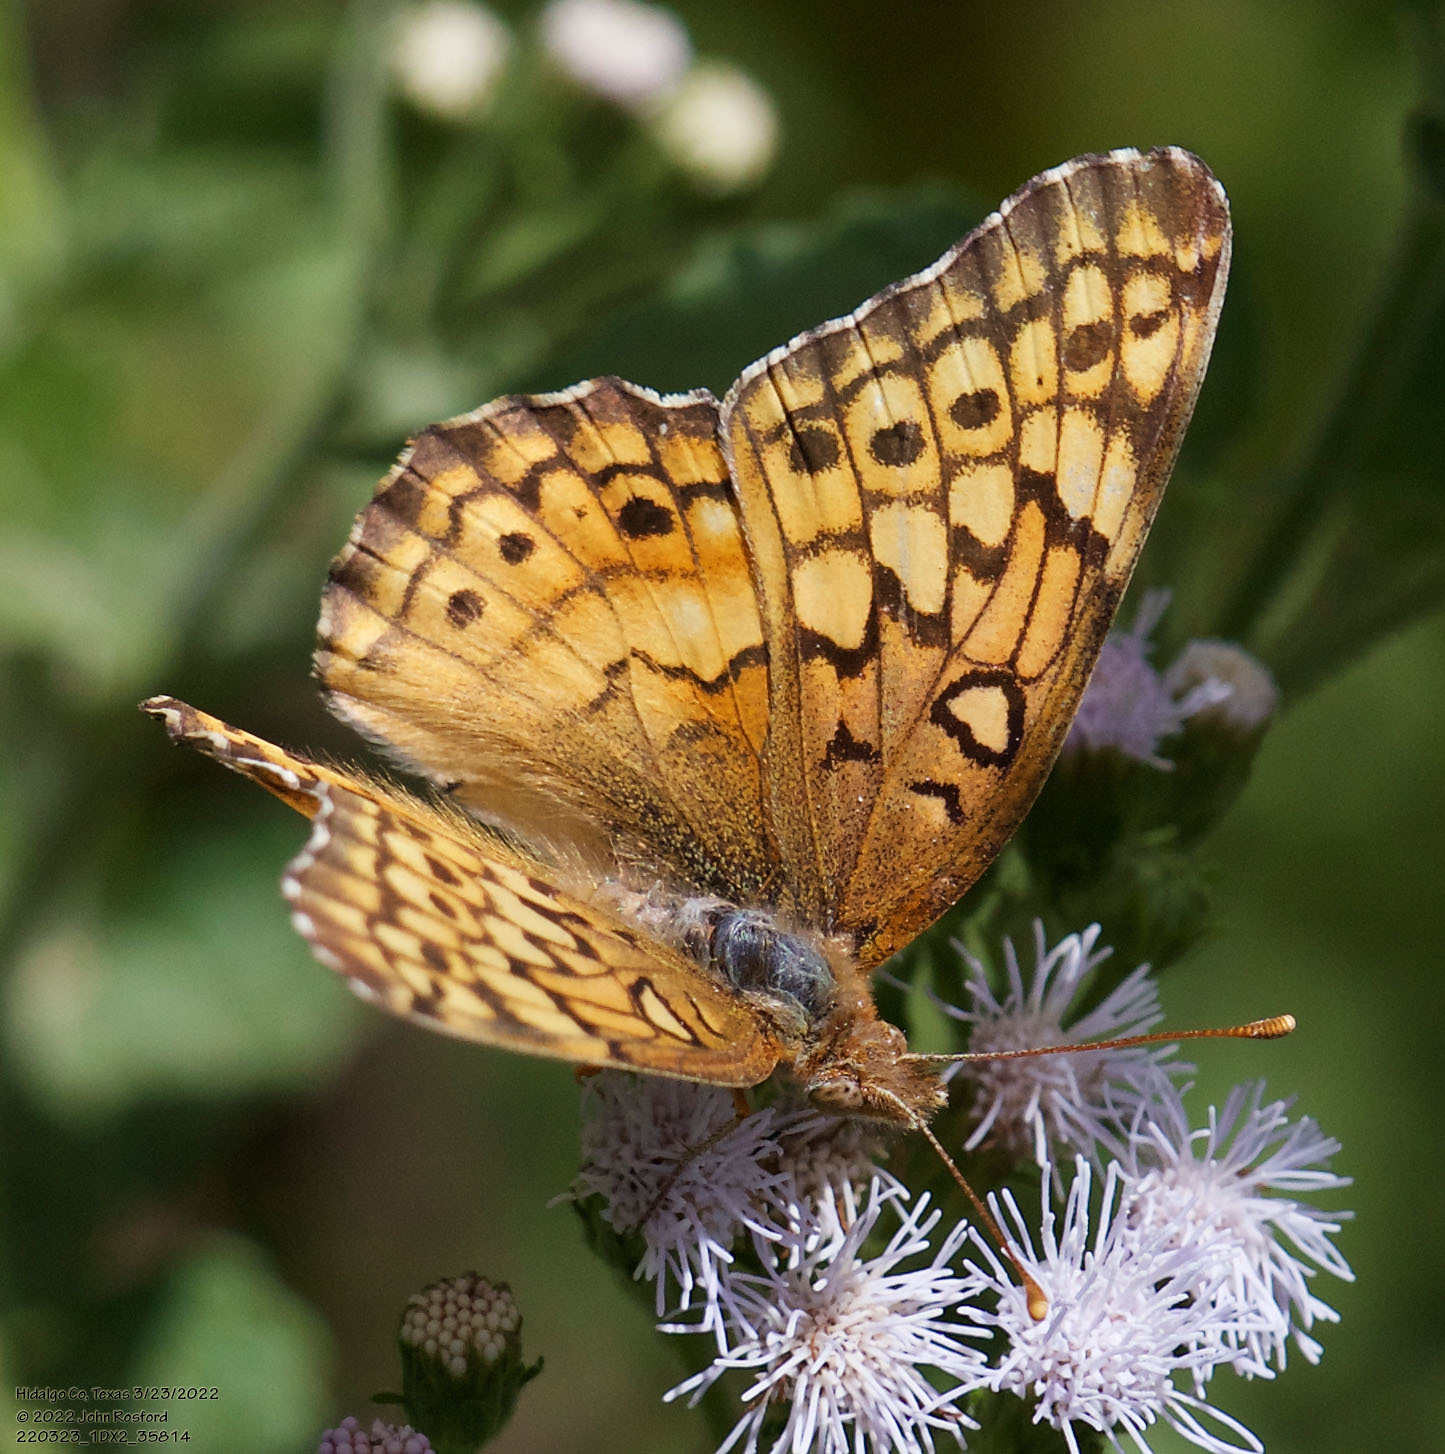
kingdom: Animalia
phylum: Arthropoda
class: Insecta
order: Lepidoptera
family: Nymphalidae
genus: Euptoieta
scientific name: Euptoieta claudia
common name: Variegated fritillary
